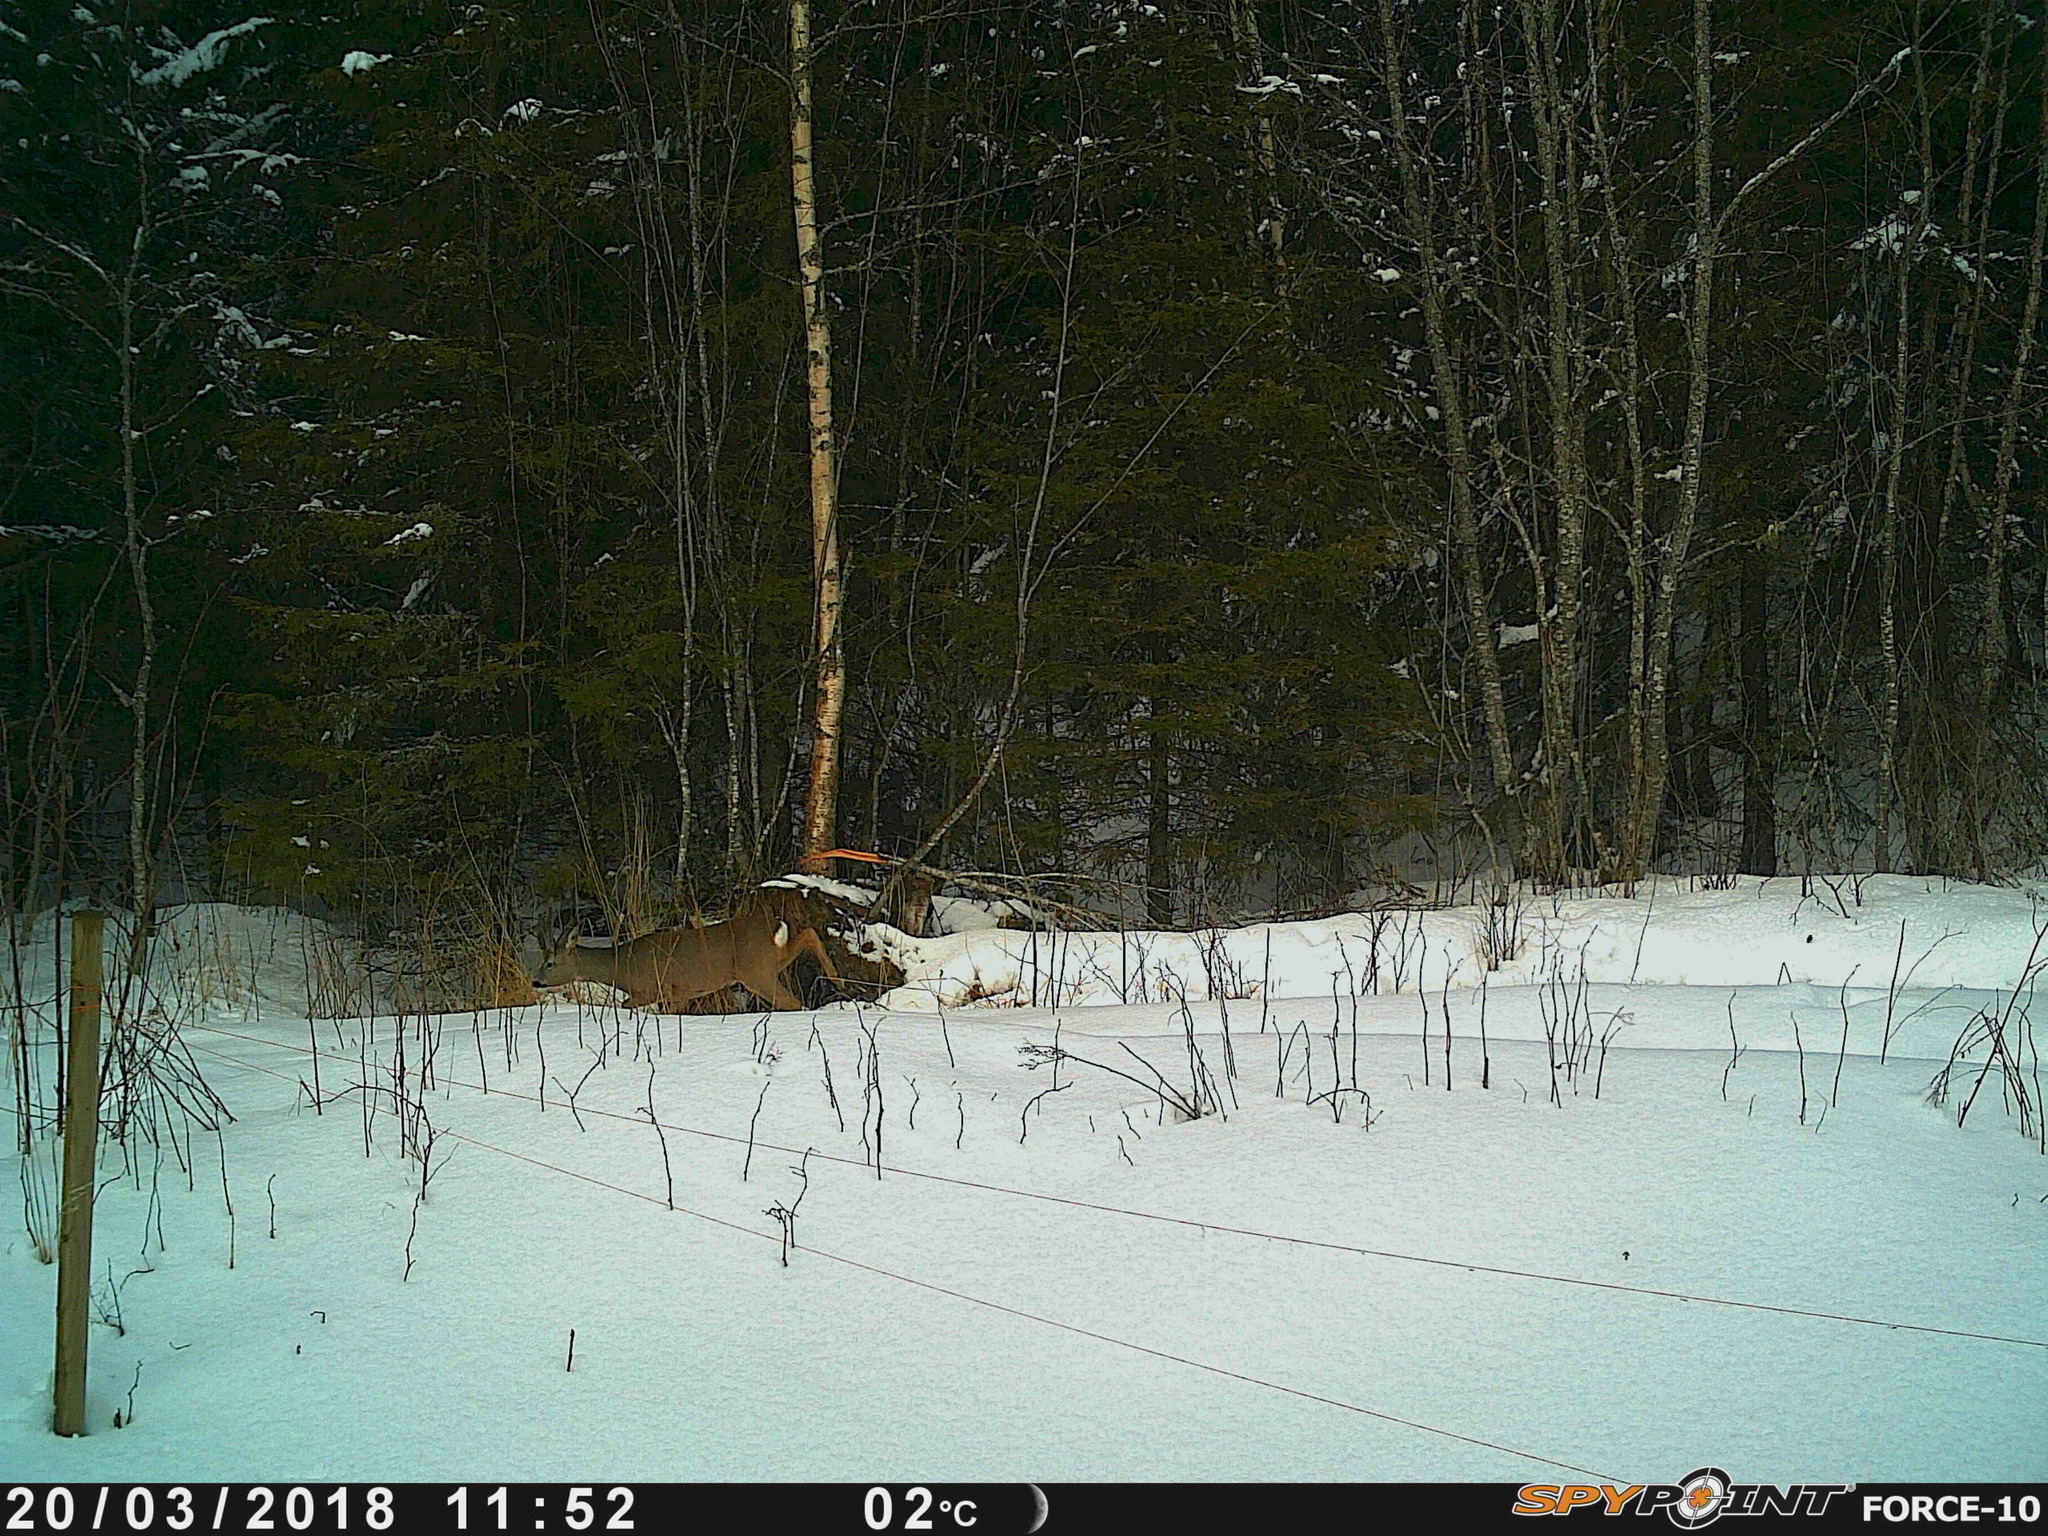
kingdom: Animalia
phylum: Chordata
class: Mammalia
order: Artiodactyla
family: Cervidae
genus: Capreolus
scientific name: Capreolus capreolus
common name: Western roe deer
